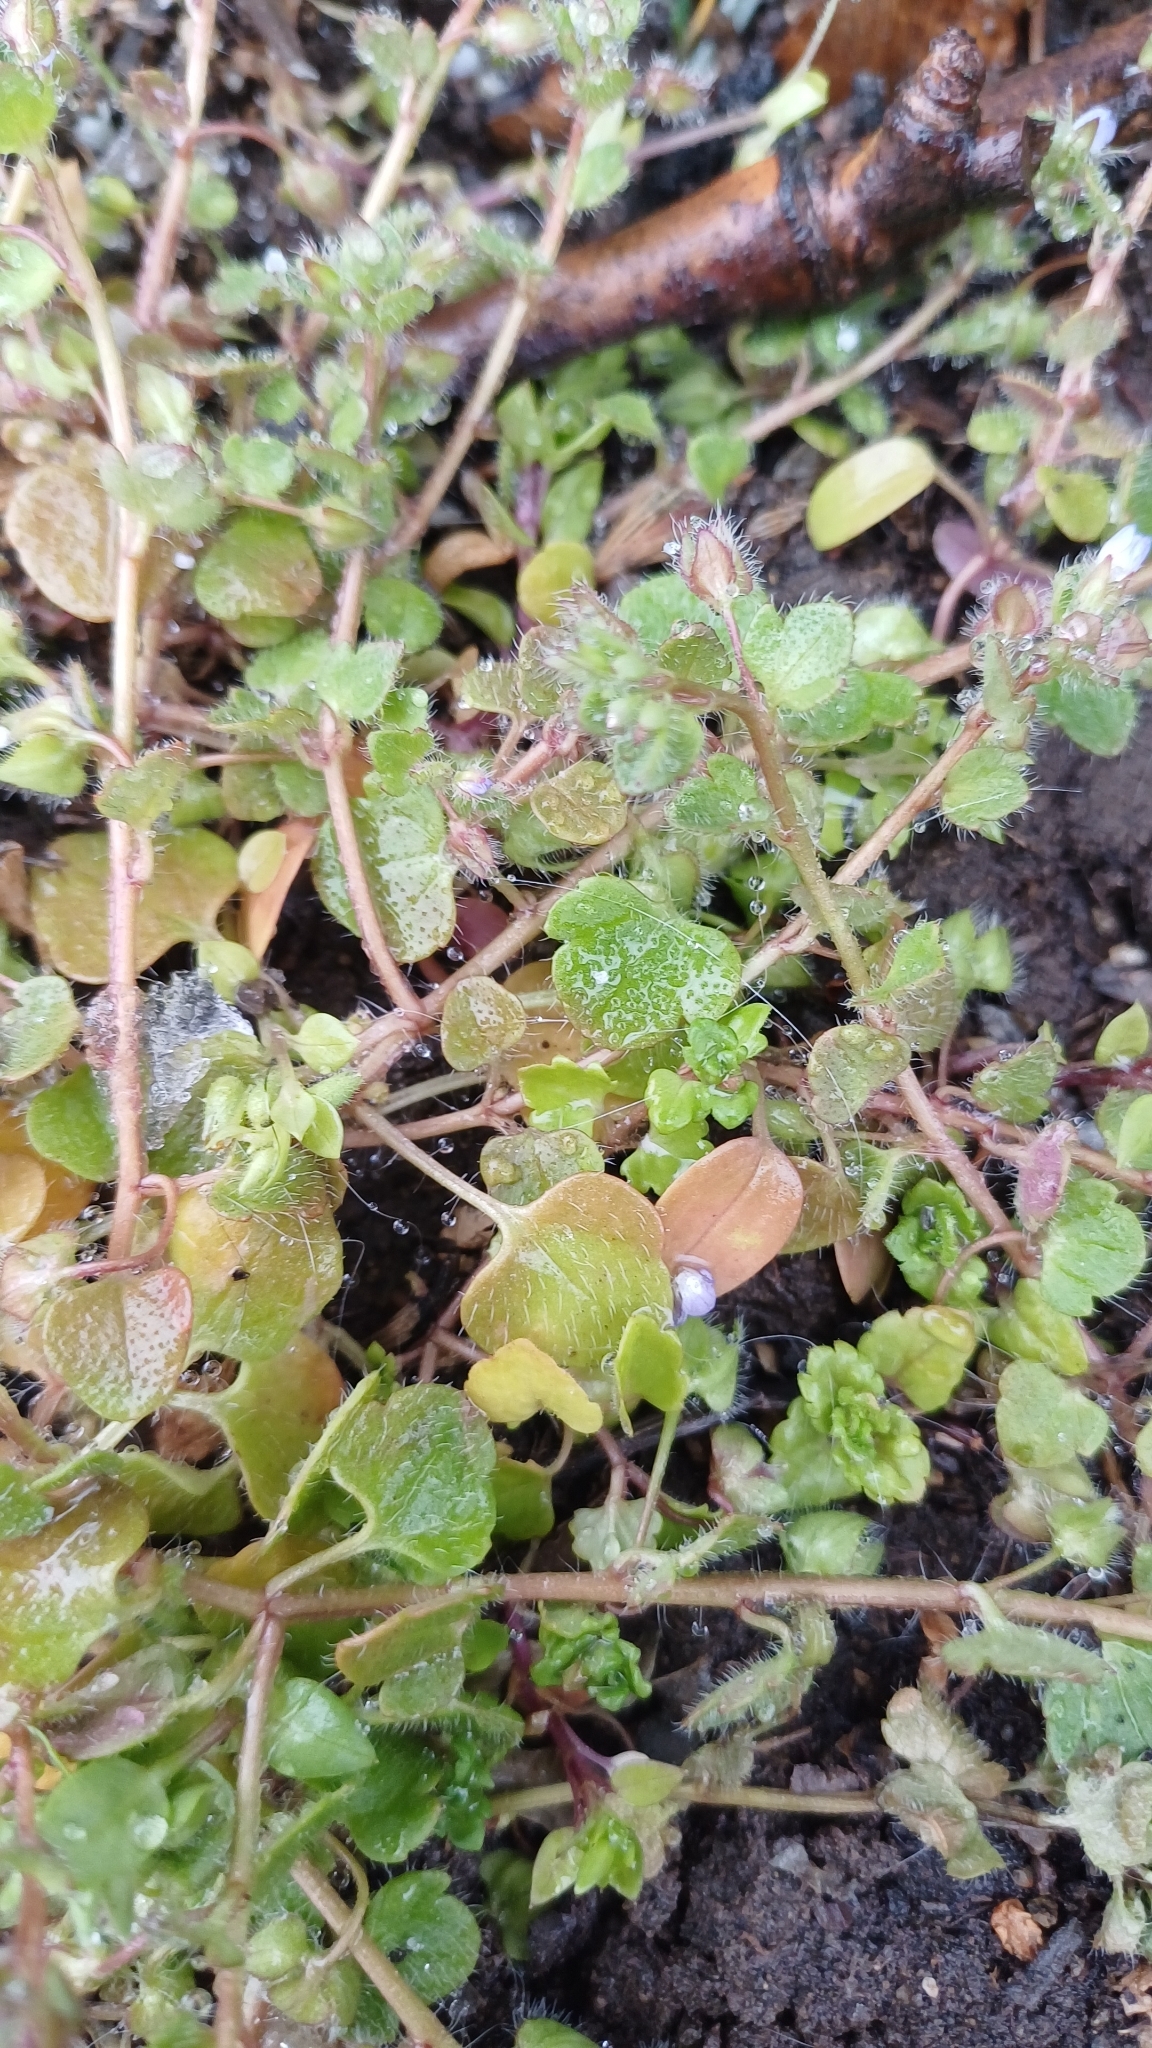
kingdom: Plantae
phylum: Tracheophyta
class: Magnoliopsida
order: Lamiales
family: Plantaginaceae
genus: Veronica
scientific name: Veronica hederifolia
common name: Ivy-leaved speedwell
